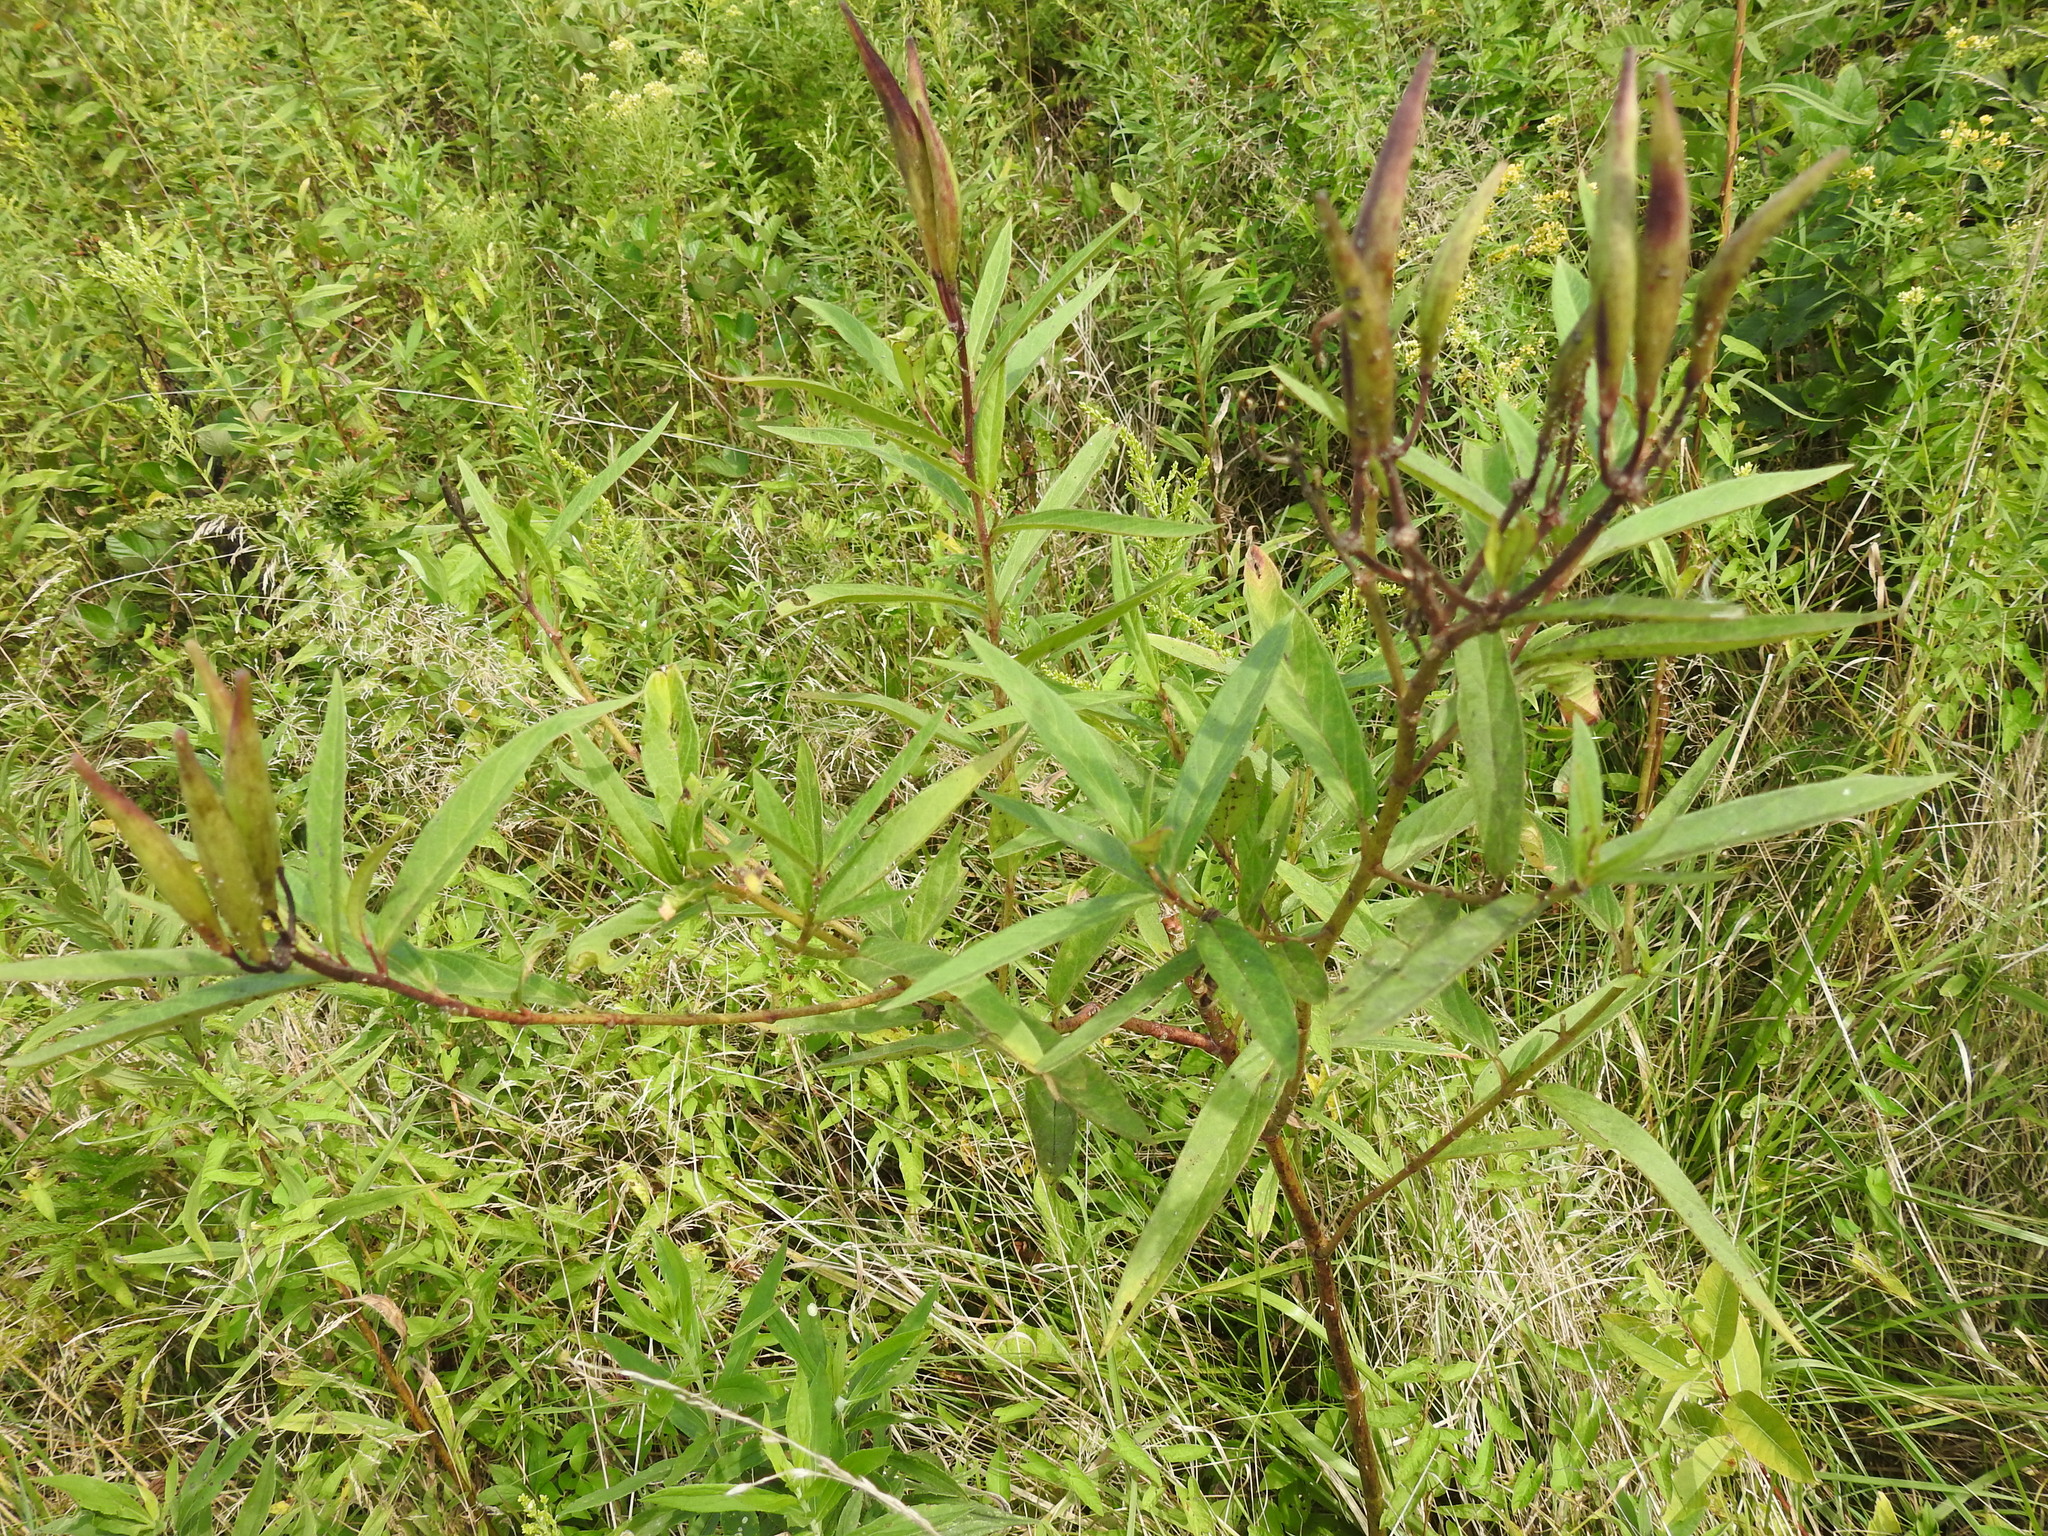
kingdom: Plantae
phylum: Tracheophyta
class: Magnoliopsida
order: Gentianales
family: Apocynaceae
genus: Asclepias
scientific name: Asclepias incarnata
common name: Swamp milkweed
